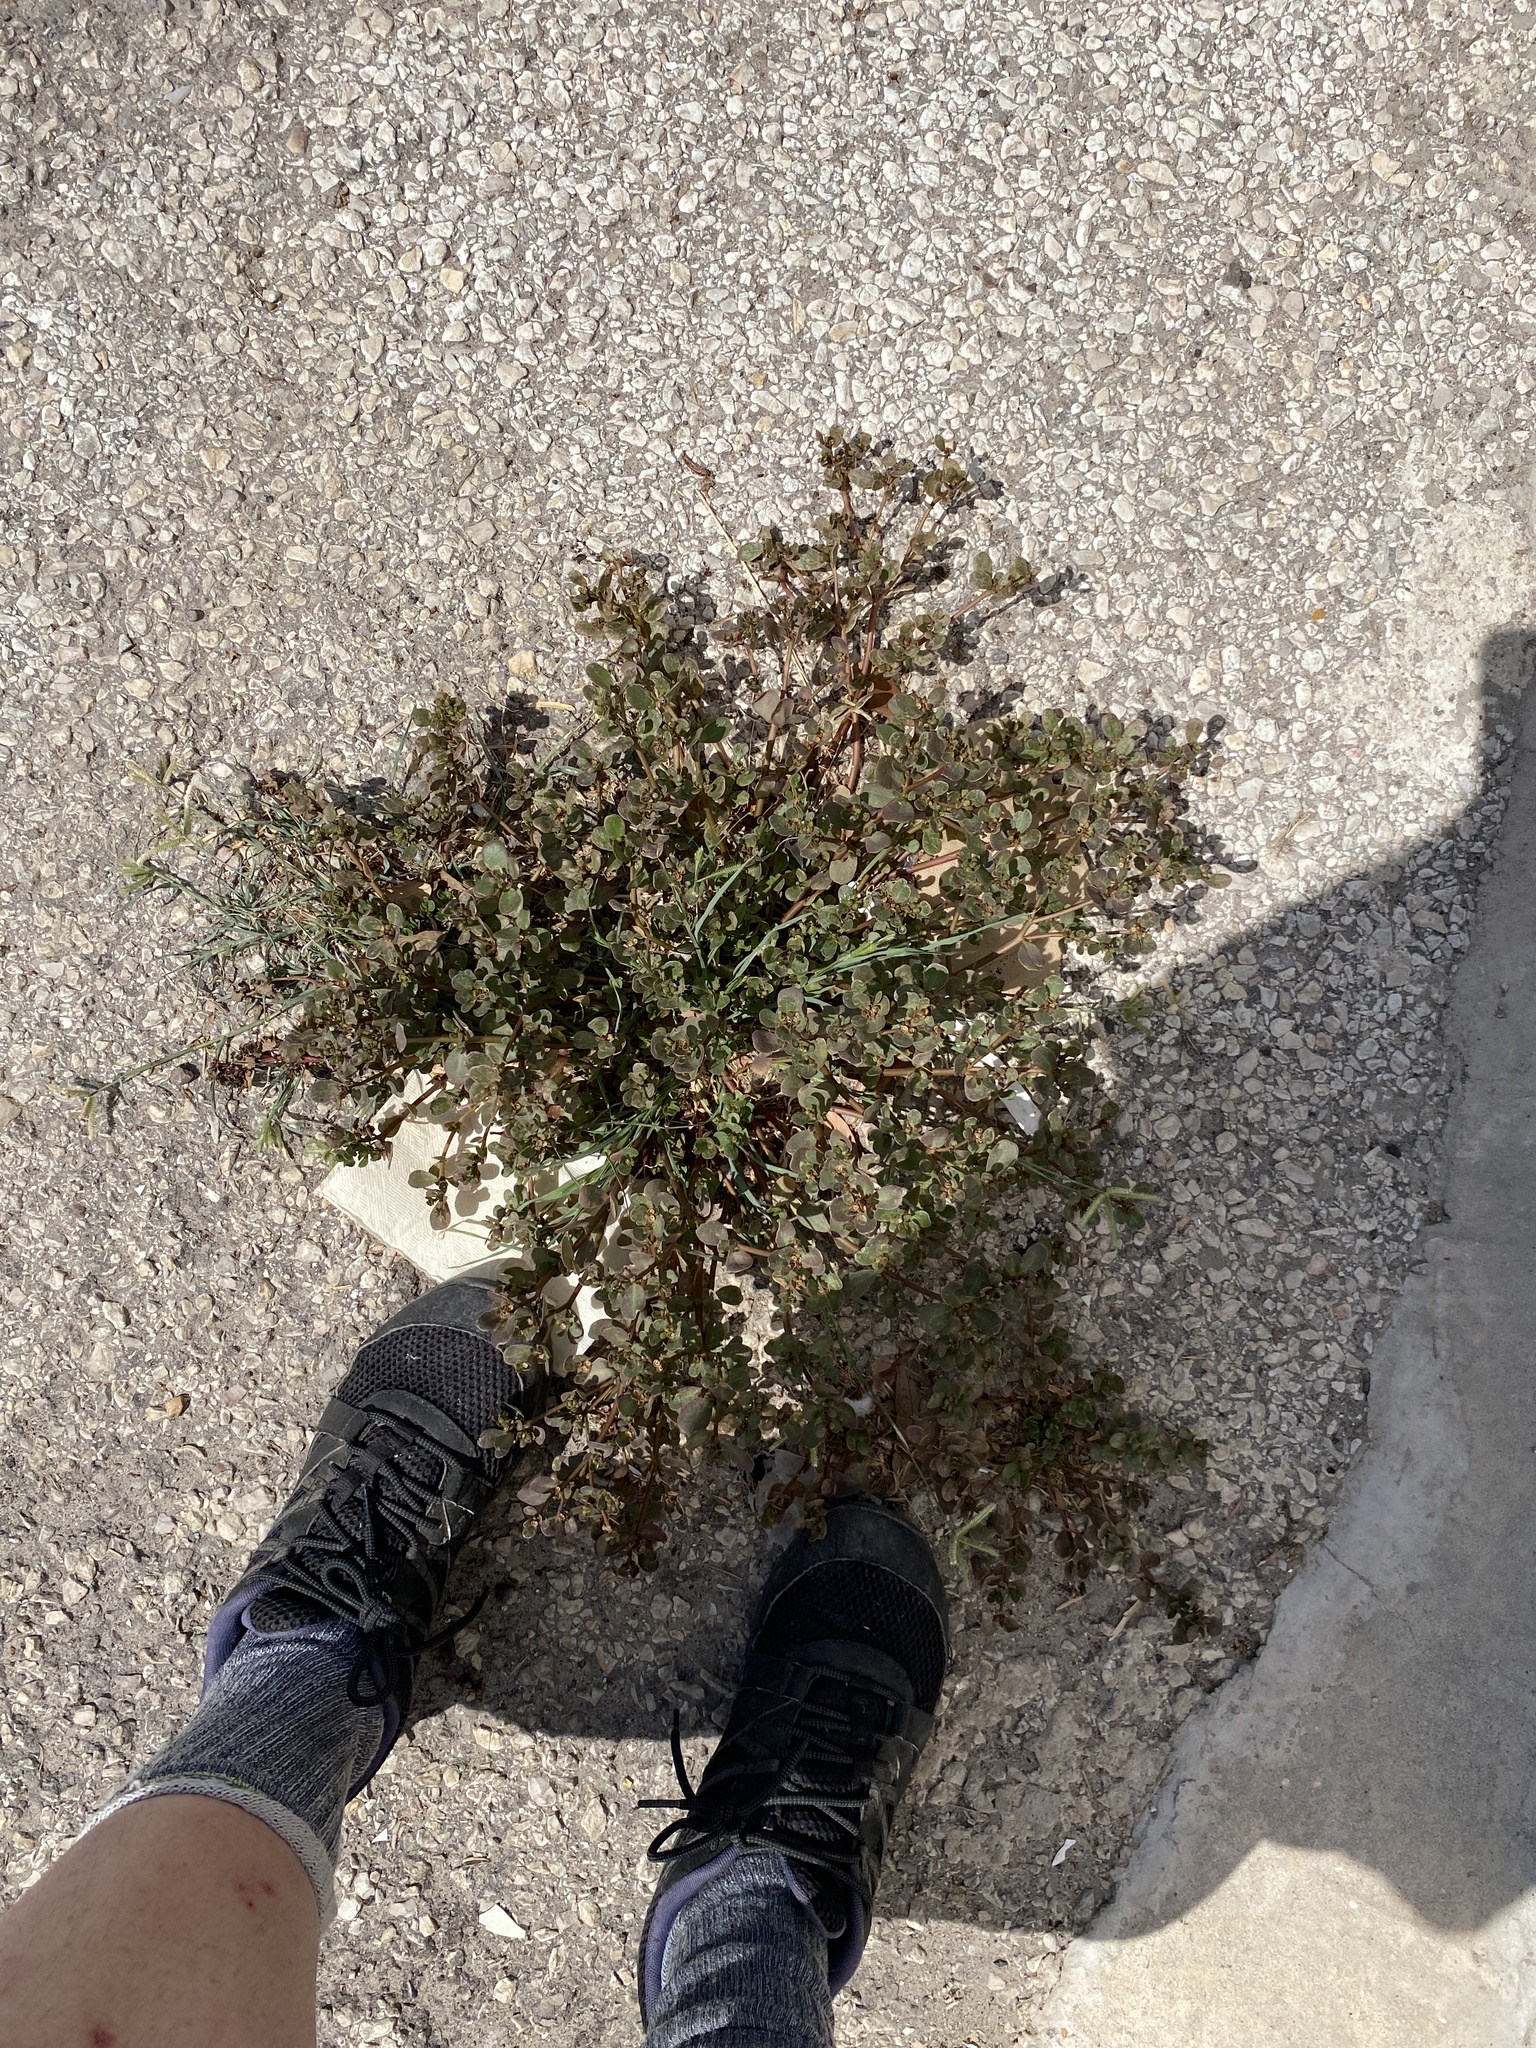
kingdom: Plantae
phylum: Tracheophyta
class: Magnoliopsida
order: Caryophyllales
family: Portulacaceae
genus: Portulaca
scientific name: Portulaca oleracea
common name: Common purslane
